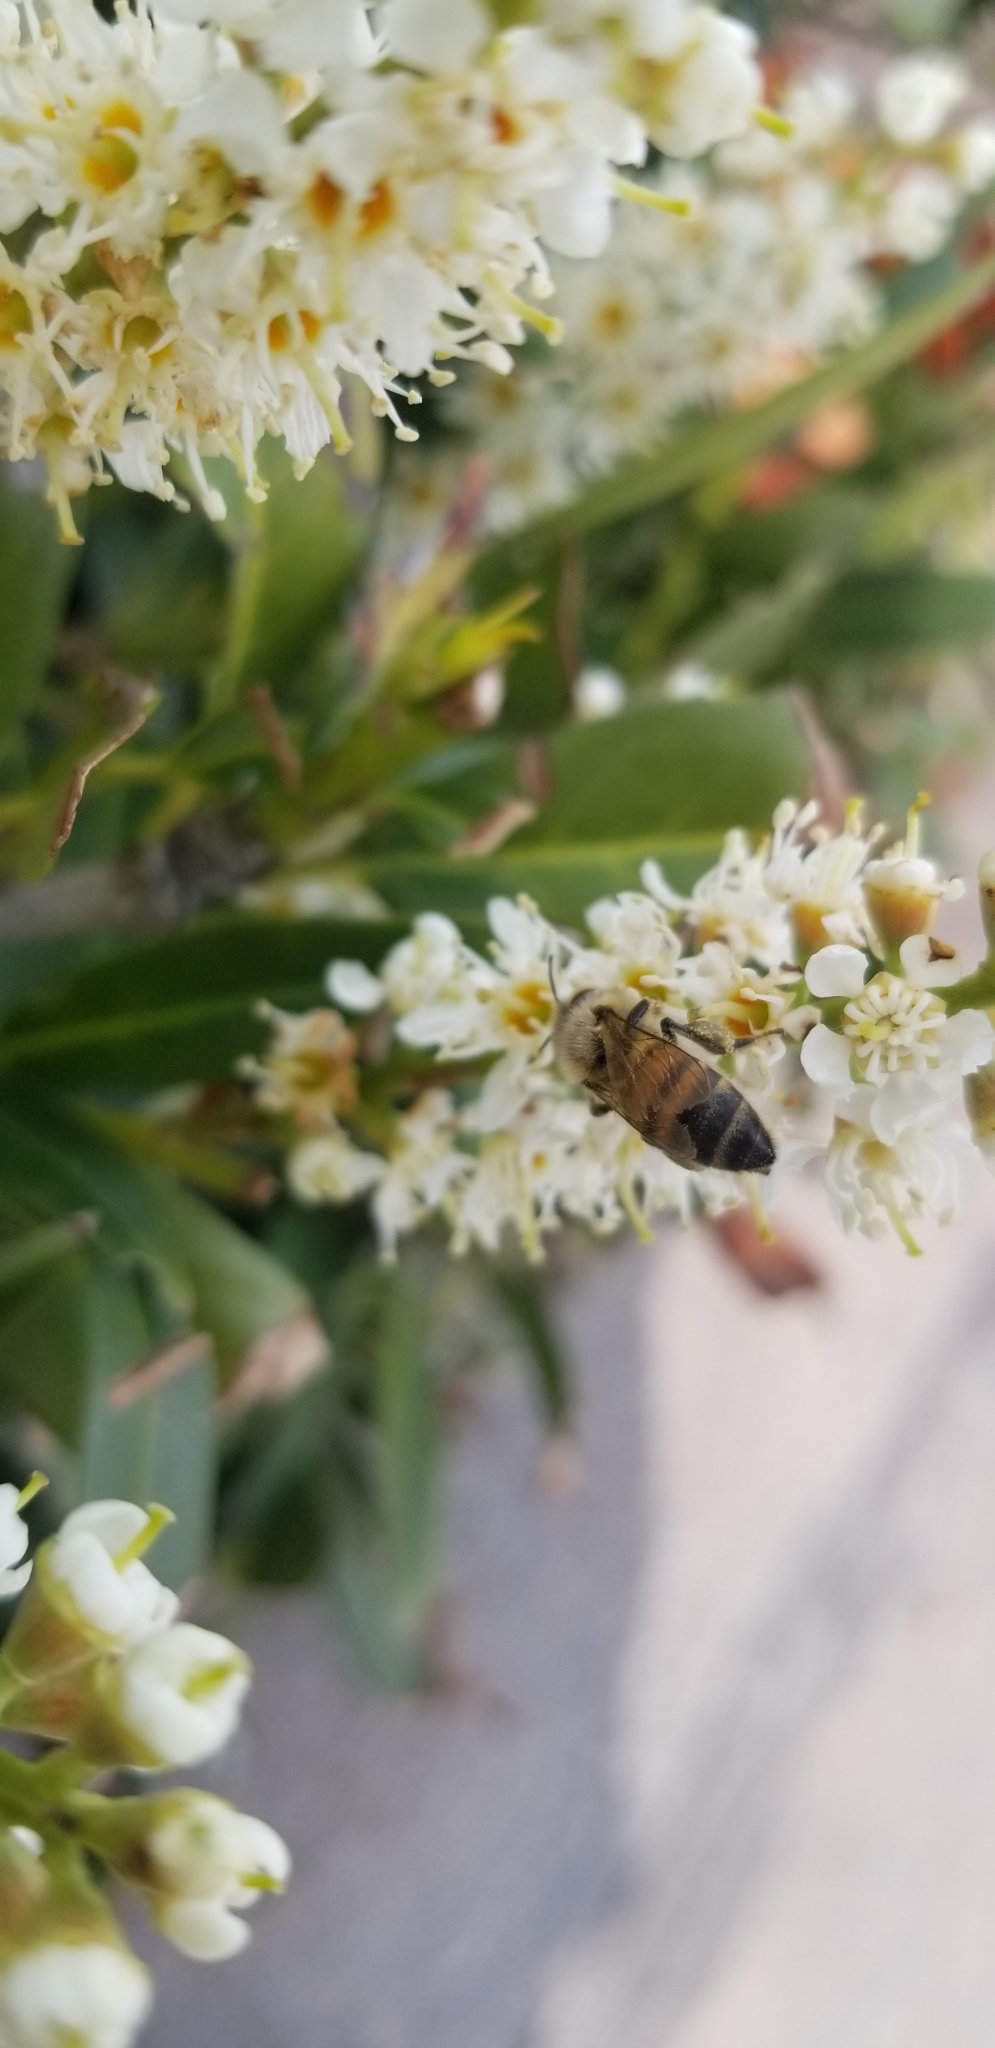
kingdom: Animalia
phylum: Arthropoda
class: Insecta
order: Hymenoptera
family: Apidae
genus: Apis
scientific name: Apis mellifera
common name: Honey bee
